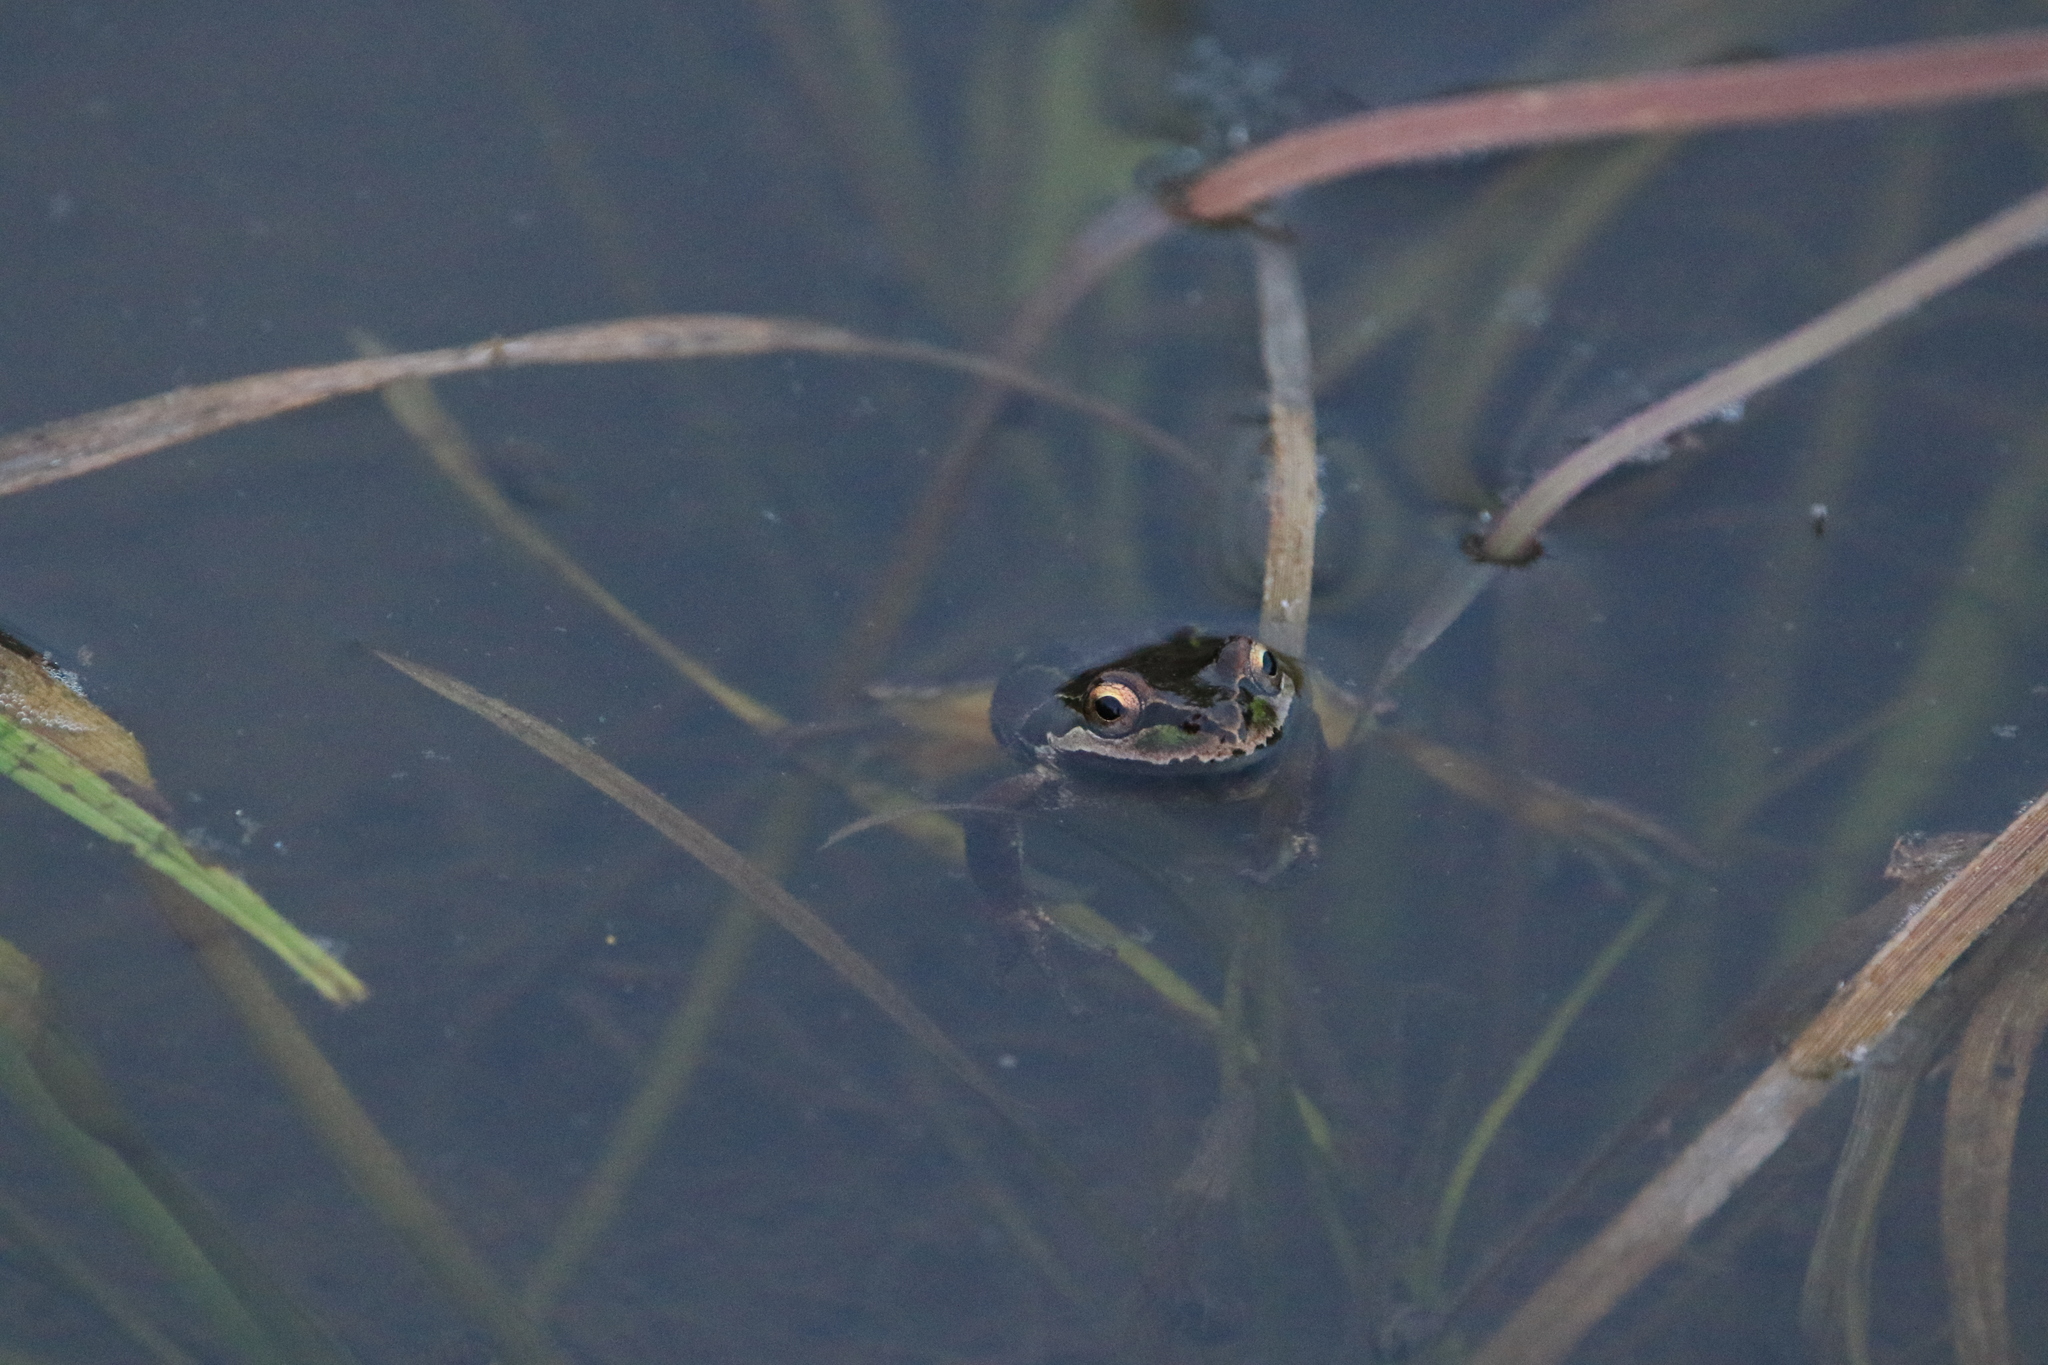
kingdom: Animalia
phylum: Chordata
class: Amphibia
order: Anura
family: Hylidae
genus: Pseudacris
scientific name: Pseudacris regilla
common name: Pacific chorus frog
